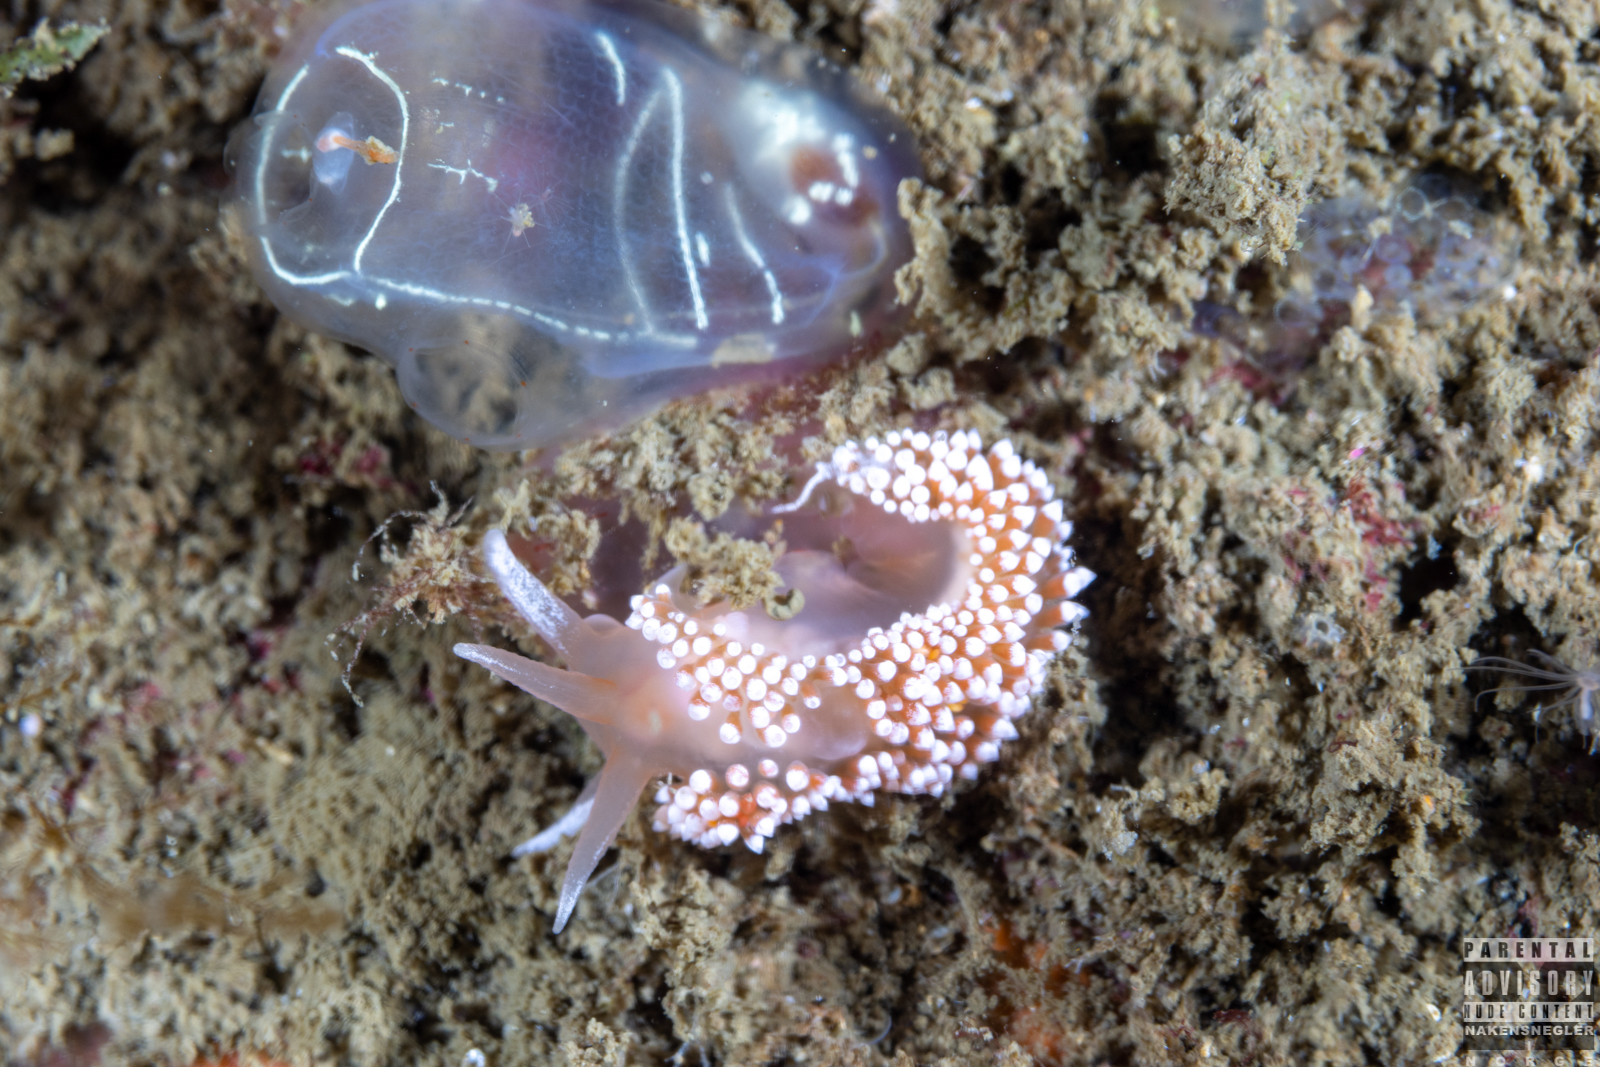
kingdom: Animalia
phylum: Mollusca
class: Gastropoda
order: Nudibranchia
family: Coryphellidae
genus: Coryphella
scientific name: Coryphella verrucosa
